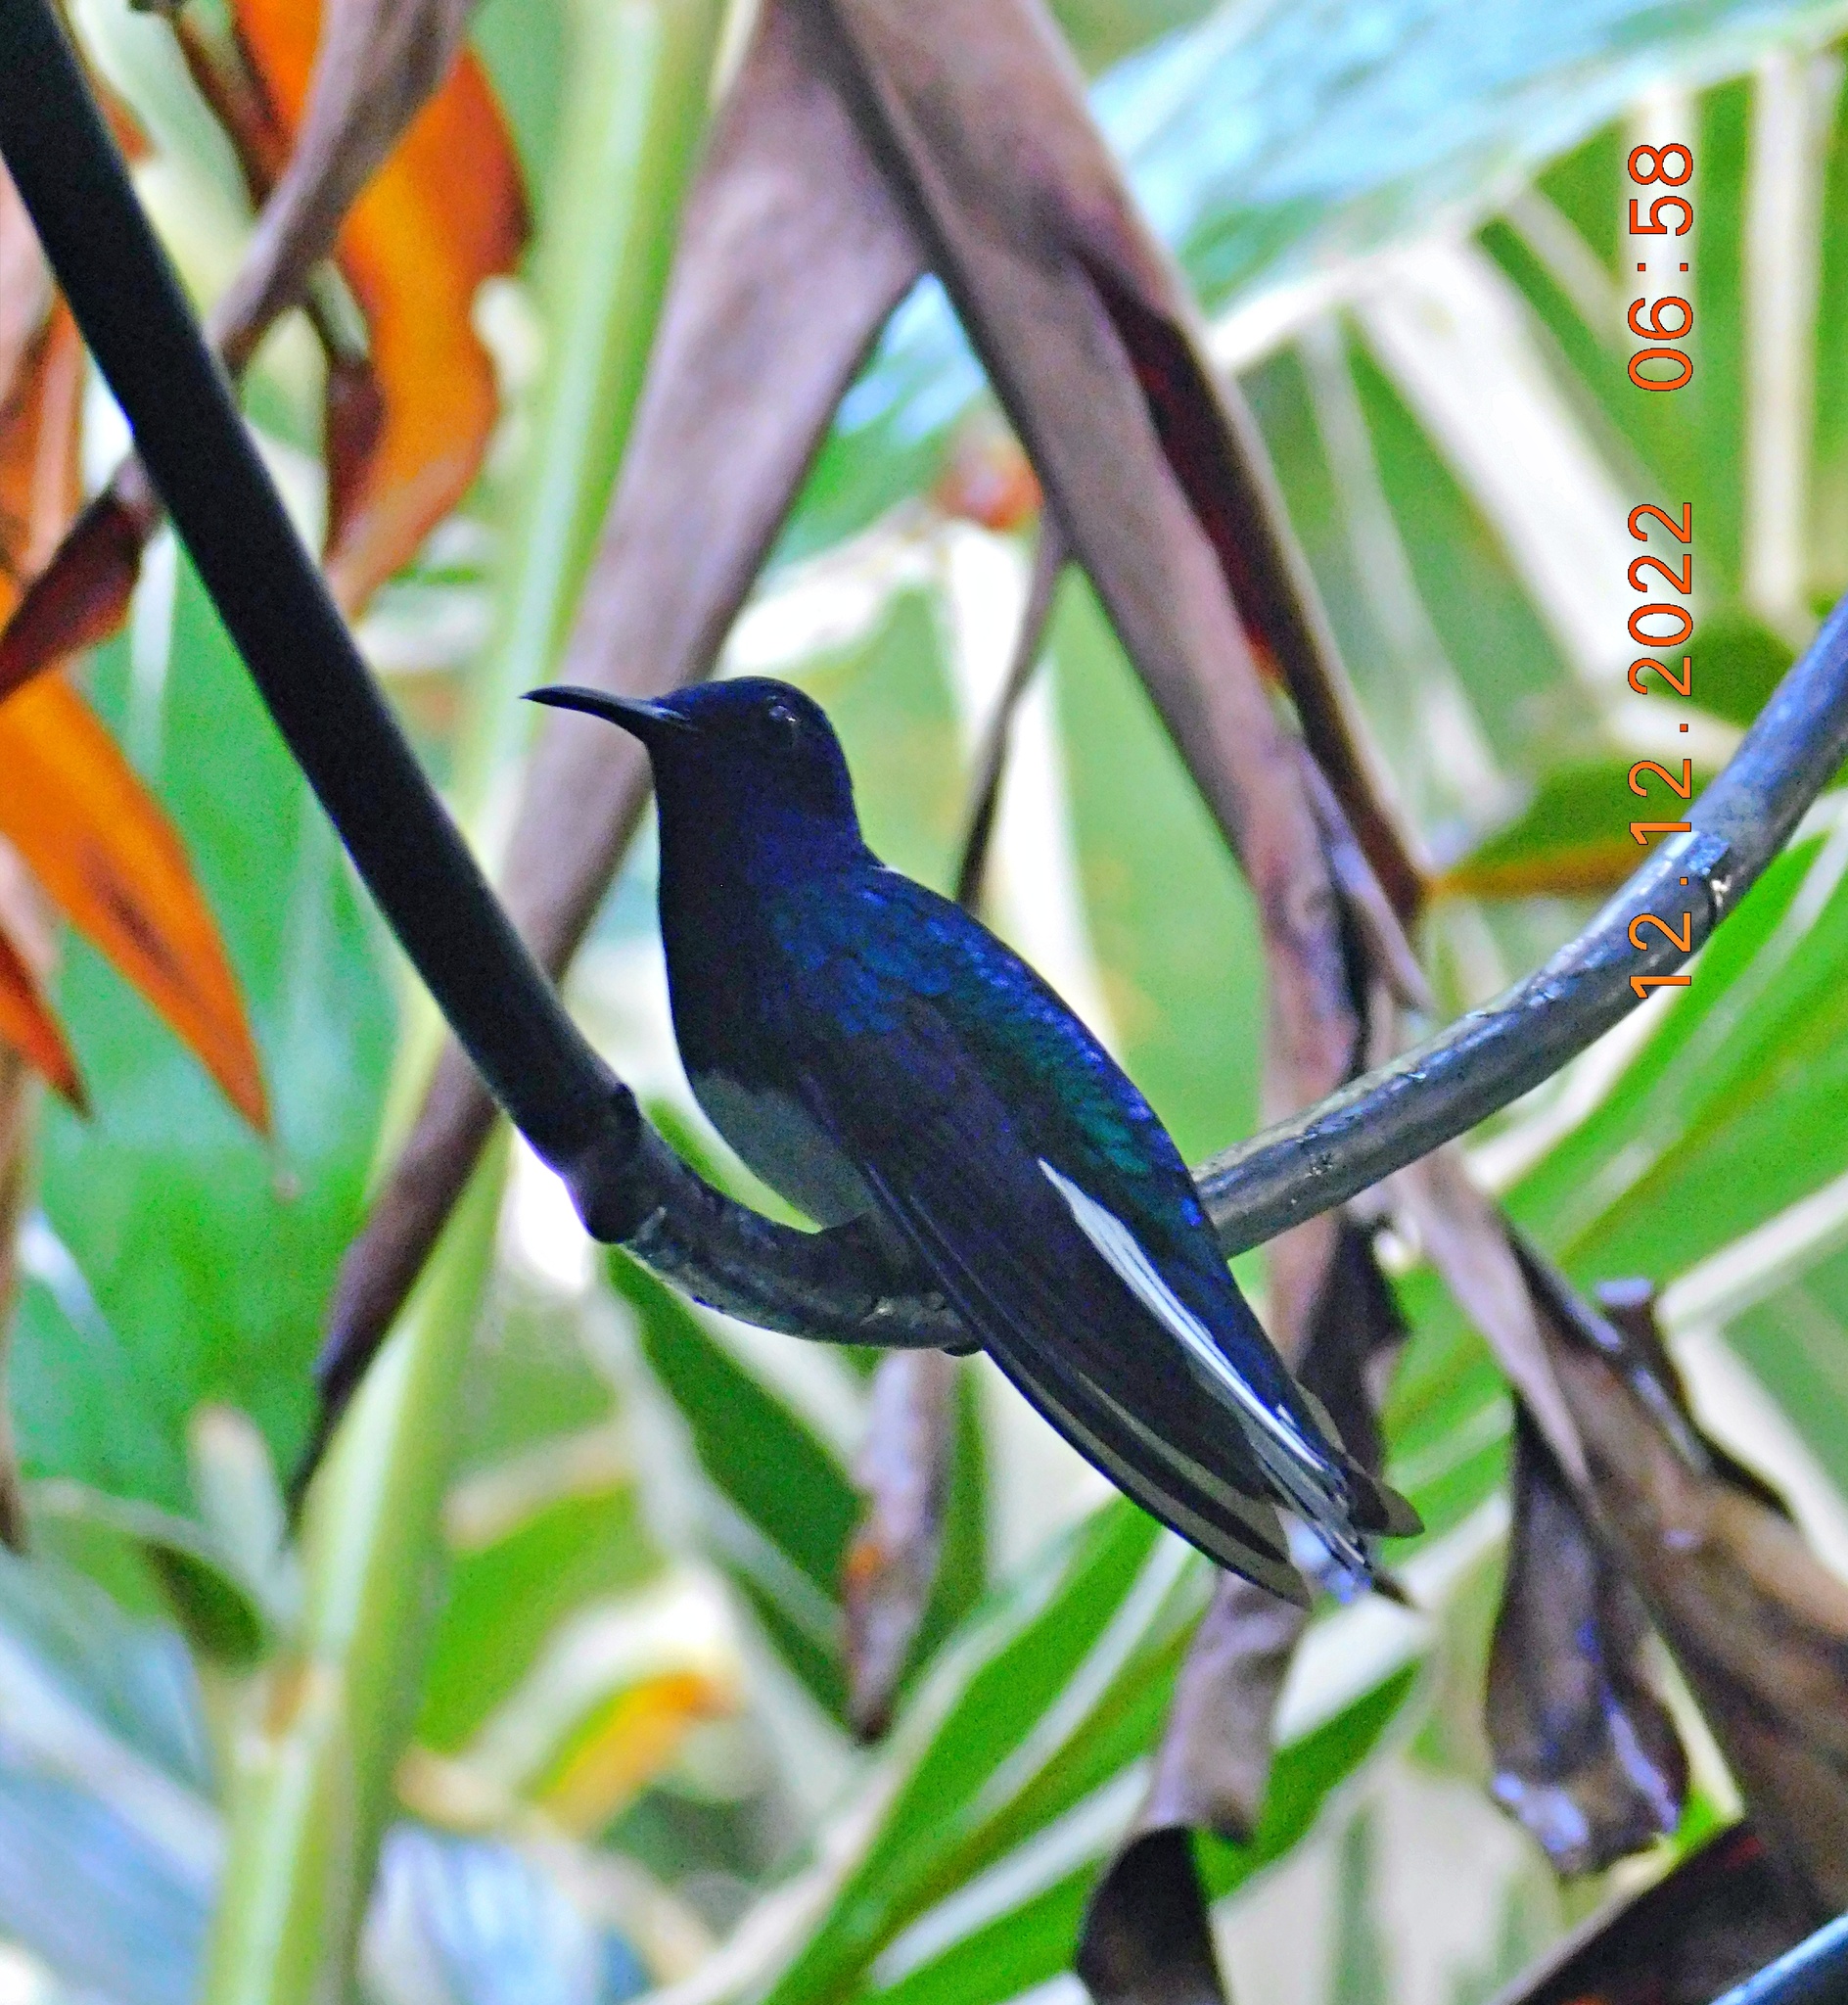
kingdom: Animalia
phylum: Chordata
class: Aves
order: Apodiformes
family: Trochilidae
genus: Florisuga
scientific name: Florisuga mellivora
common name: White-necked jacobin
